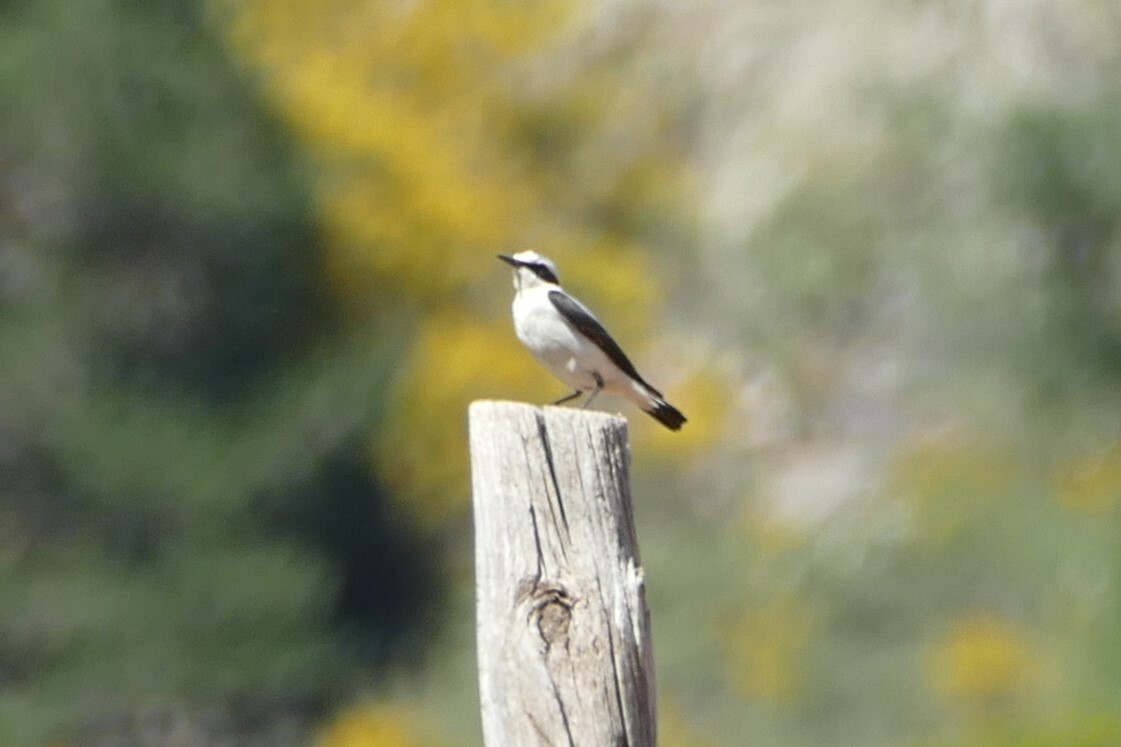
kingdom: Animalia
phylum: Chordata
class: Aves
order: Passeriformes
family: Muscicapidae
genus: Oenanthe
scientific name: Oenanthe oenanthe
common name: Northern wheatear
